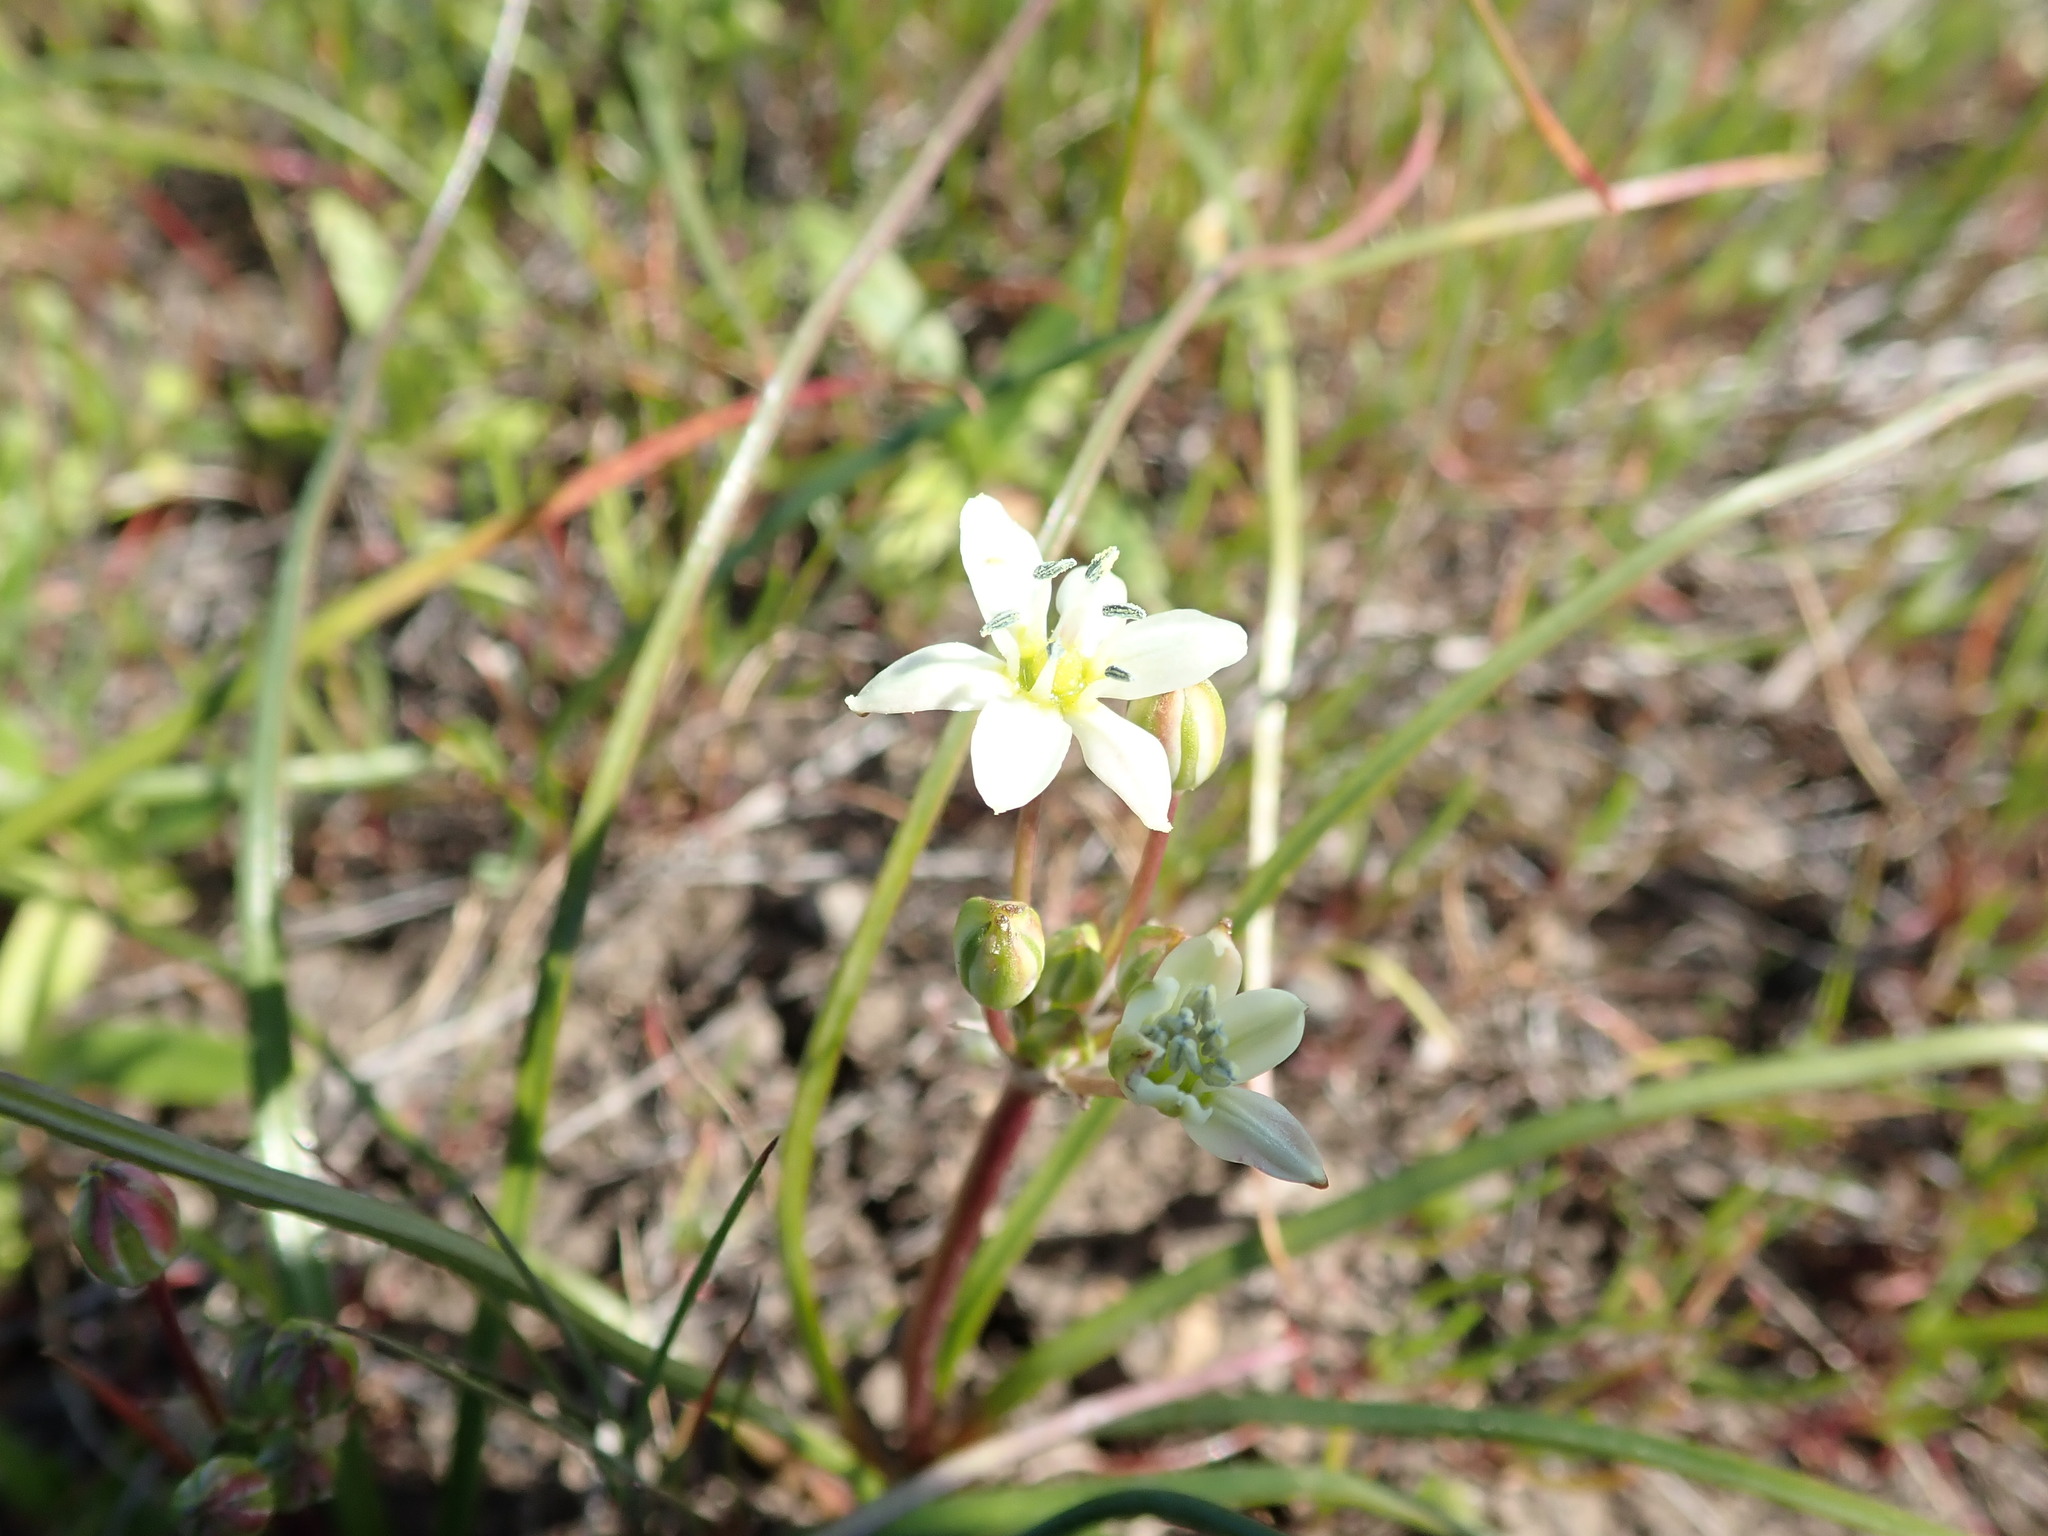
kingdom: Plantae
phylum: Tracheophyta
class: Liliopsida
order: Asparagales
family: Asparagaceae
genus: Muilla
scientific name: Muilla maritima
